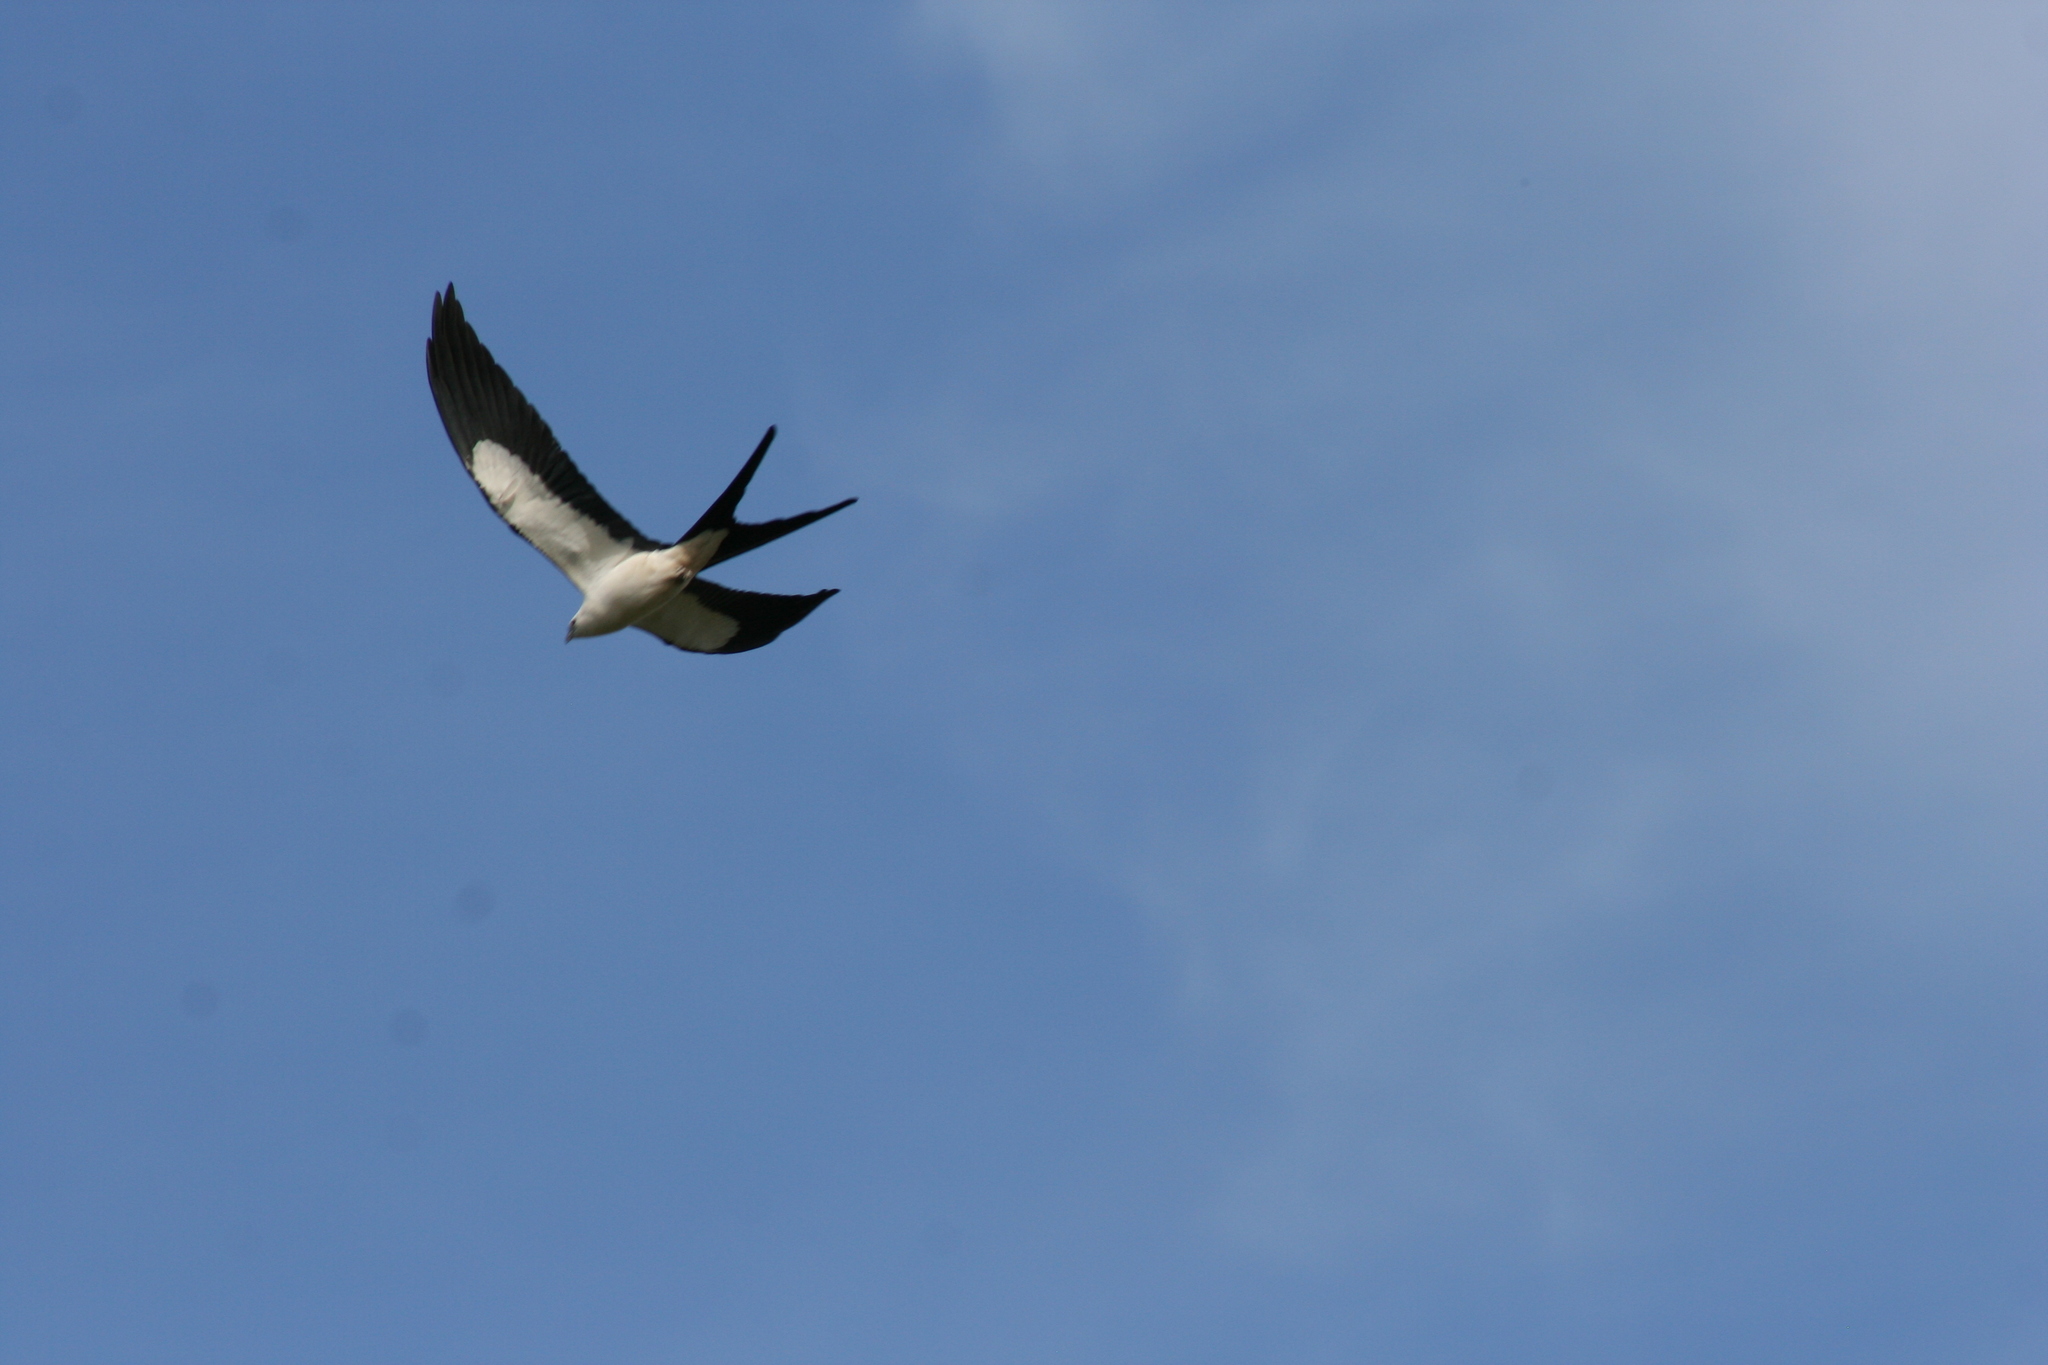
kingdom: Animalia
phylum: Chordata
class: Aves
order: Accipitriformes
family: Accipitridae
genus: Elanoides
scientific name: Elanoides forficatus
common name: Swallow-tailed kite
